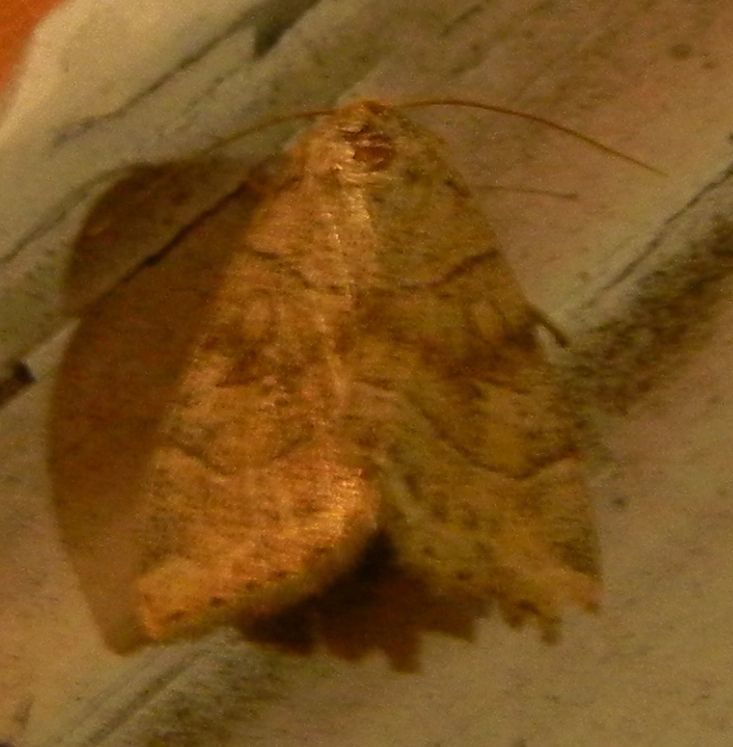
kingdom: Animalia
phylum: Arthropoda
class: Insecta
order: Lepidoptera
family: Noctuidae
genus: Cosmia
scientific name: Cosmia trapezina
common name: Dun-bar
